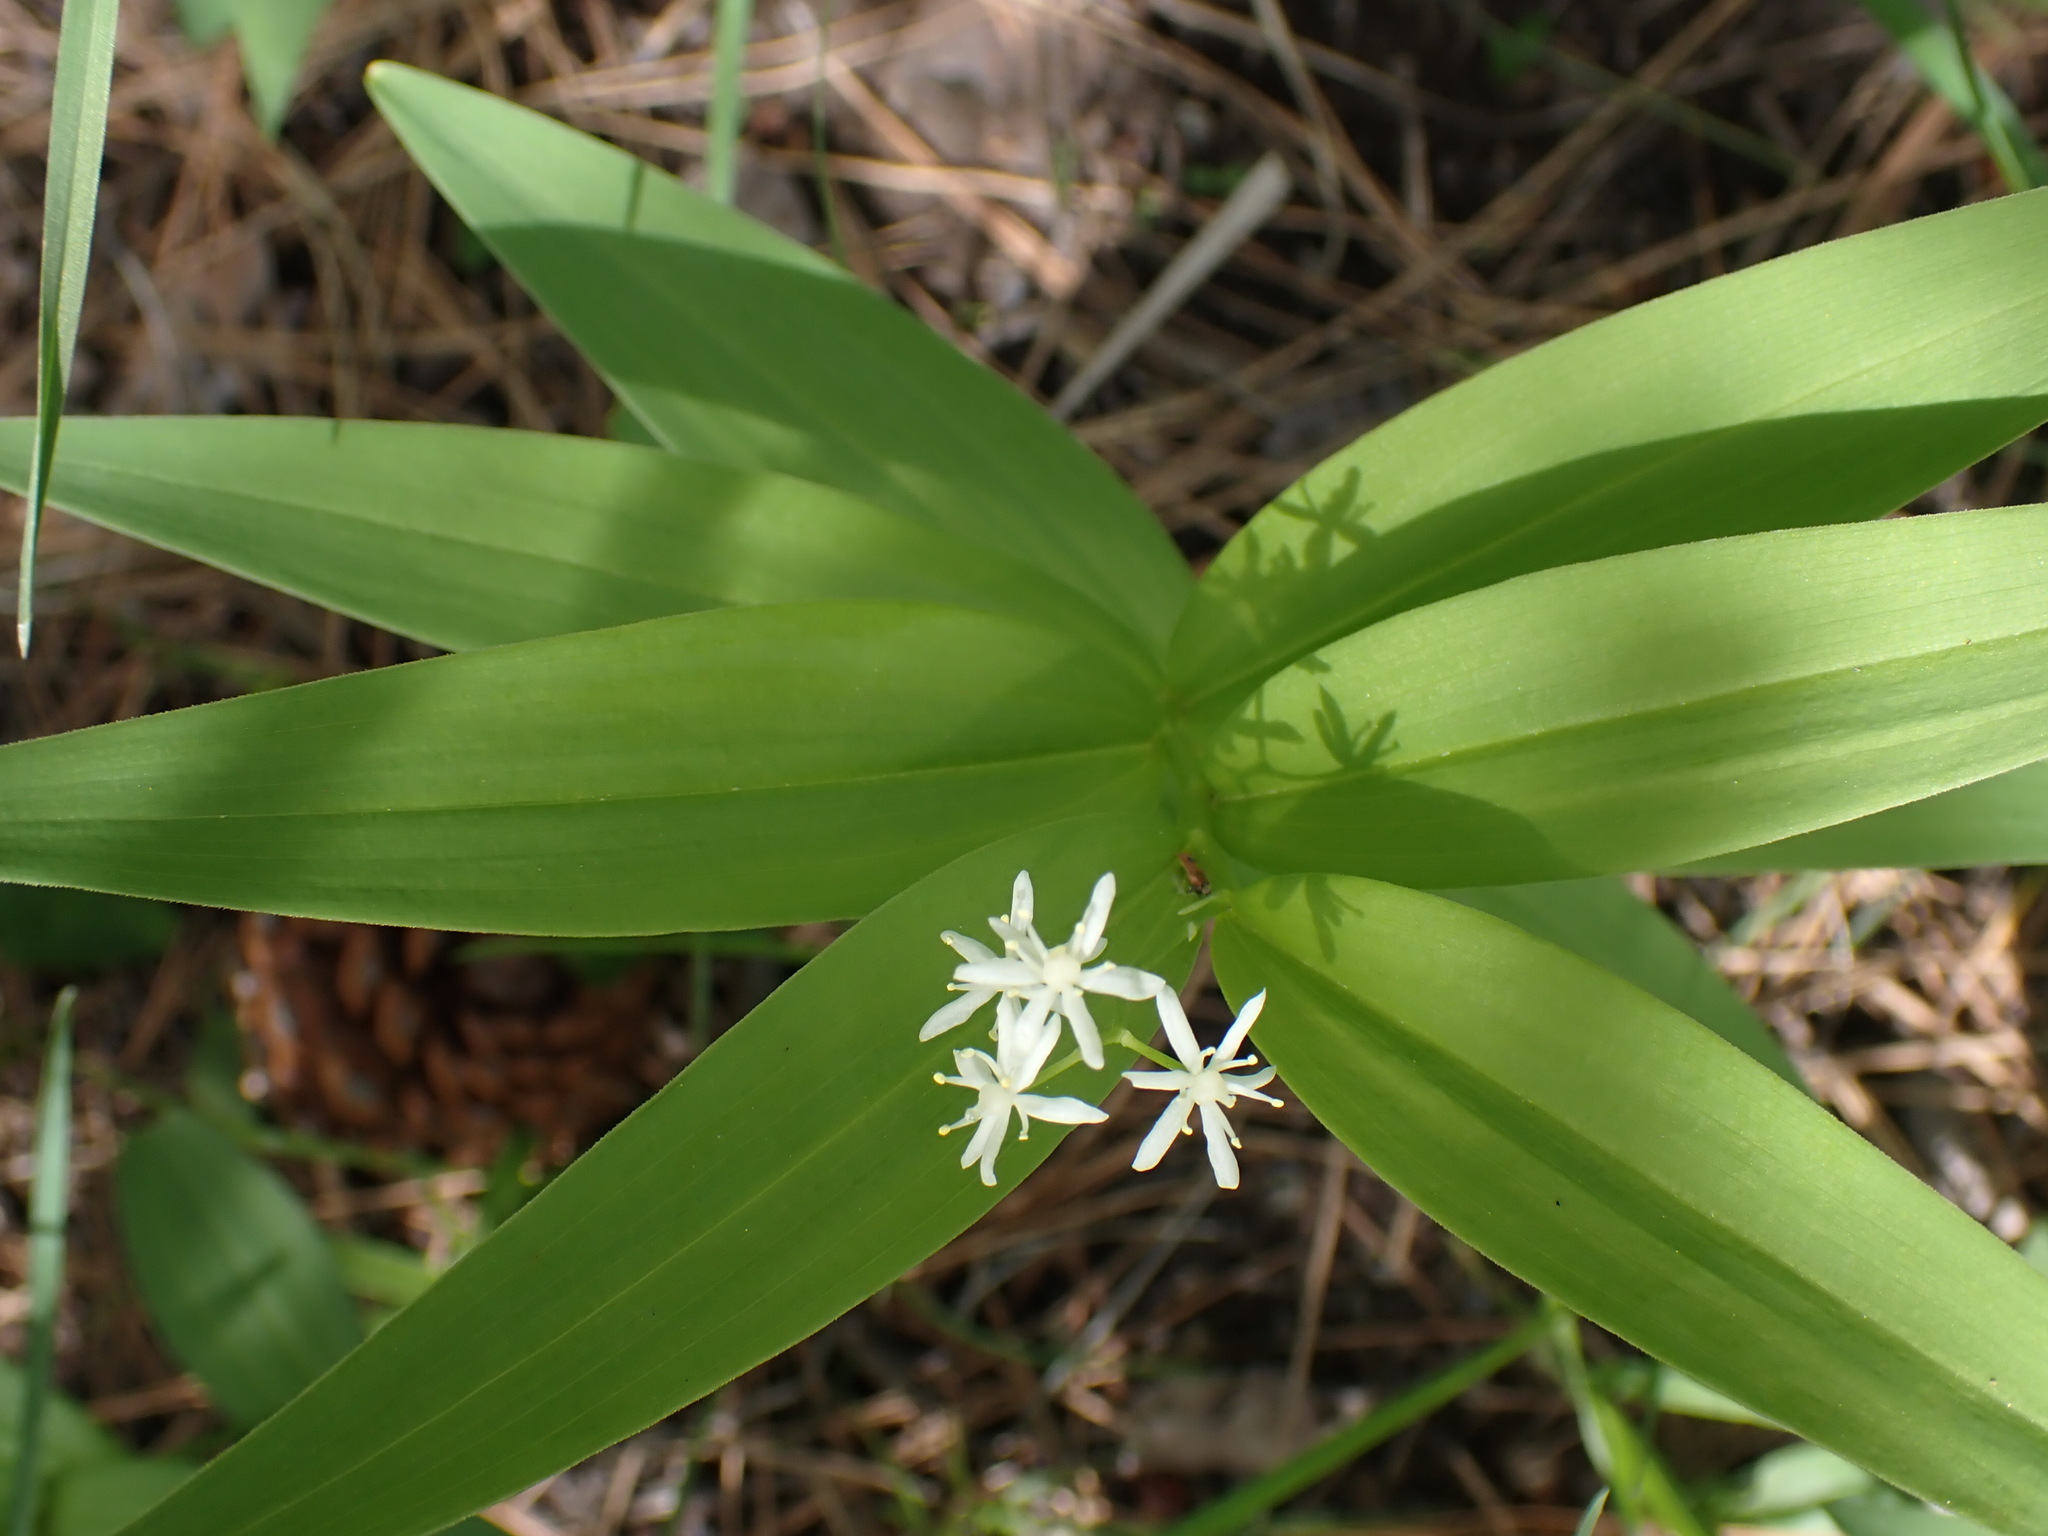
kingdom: Plantae
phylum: Tracheophyta
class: Liliopsida
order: Asparagales
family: Asparagaceae
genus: Maianthemum
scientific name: Maianthemum stellatum
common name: Little false solomon's seal
